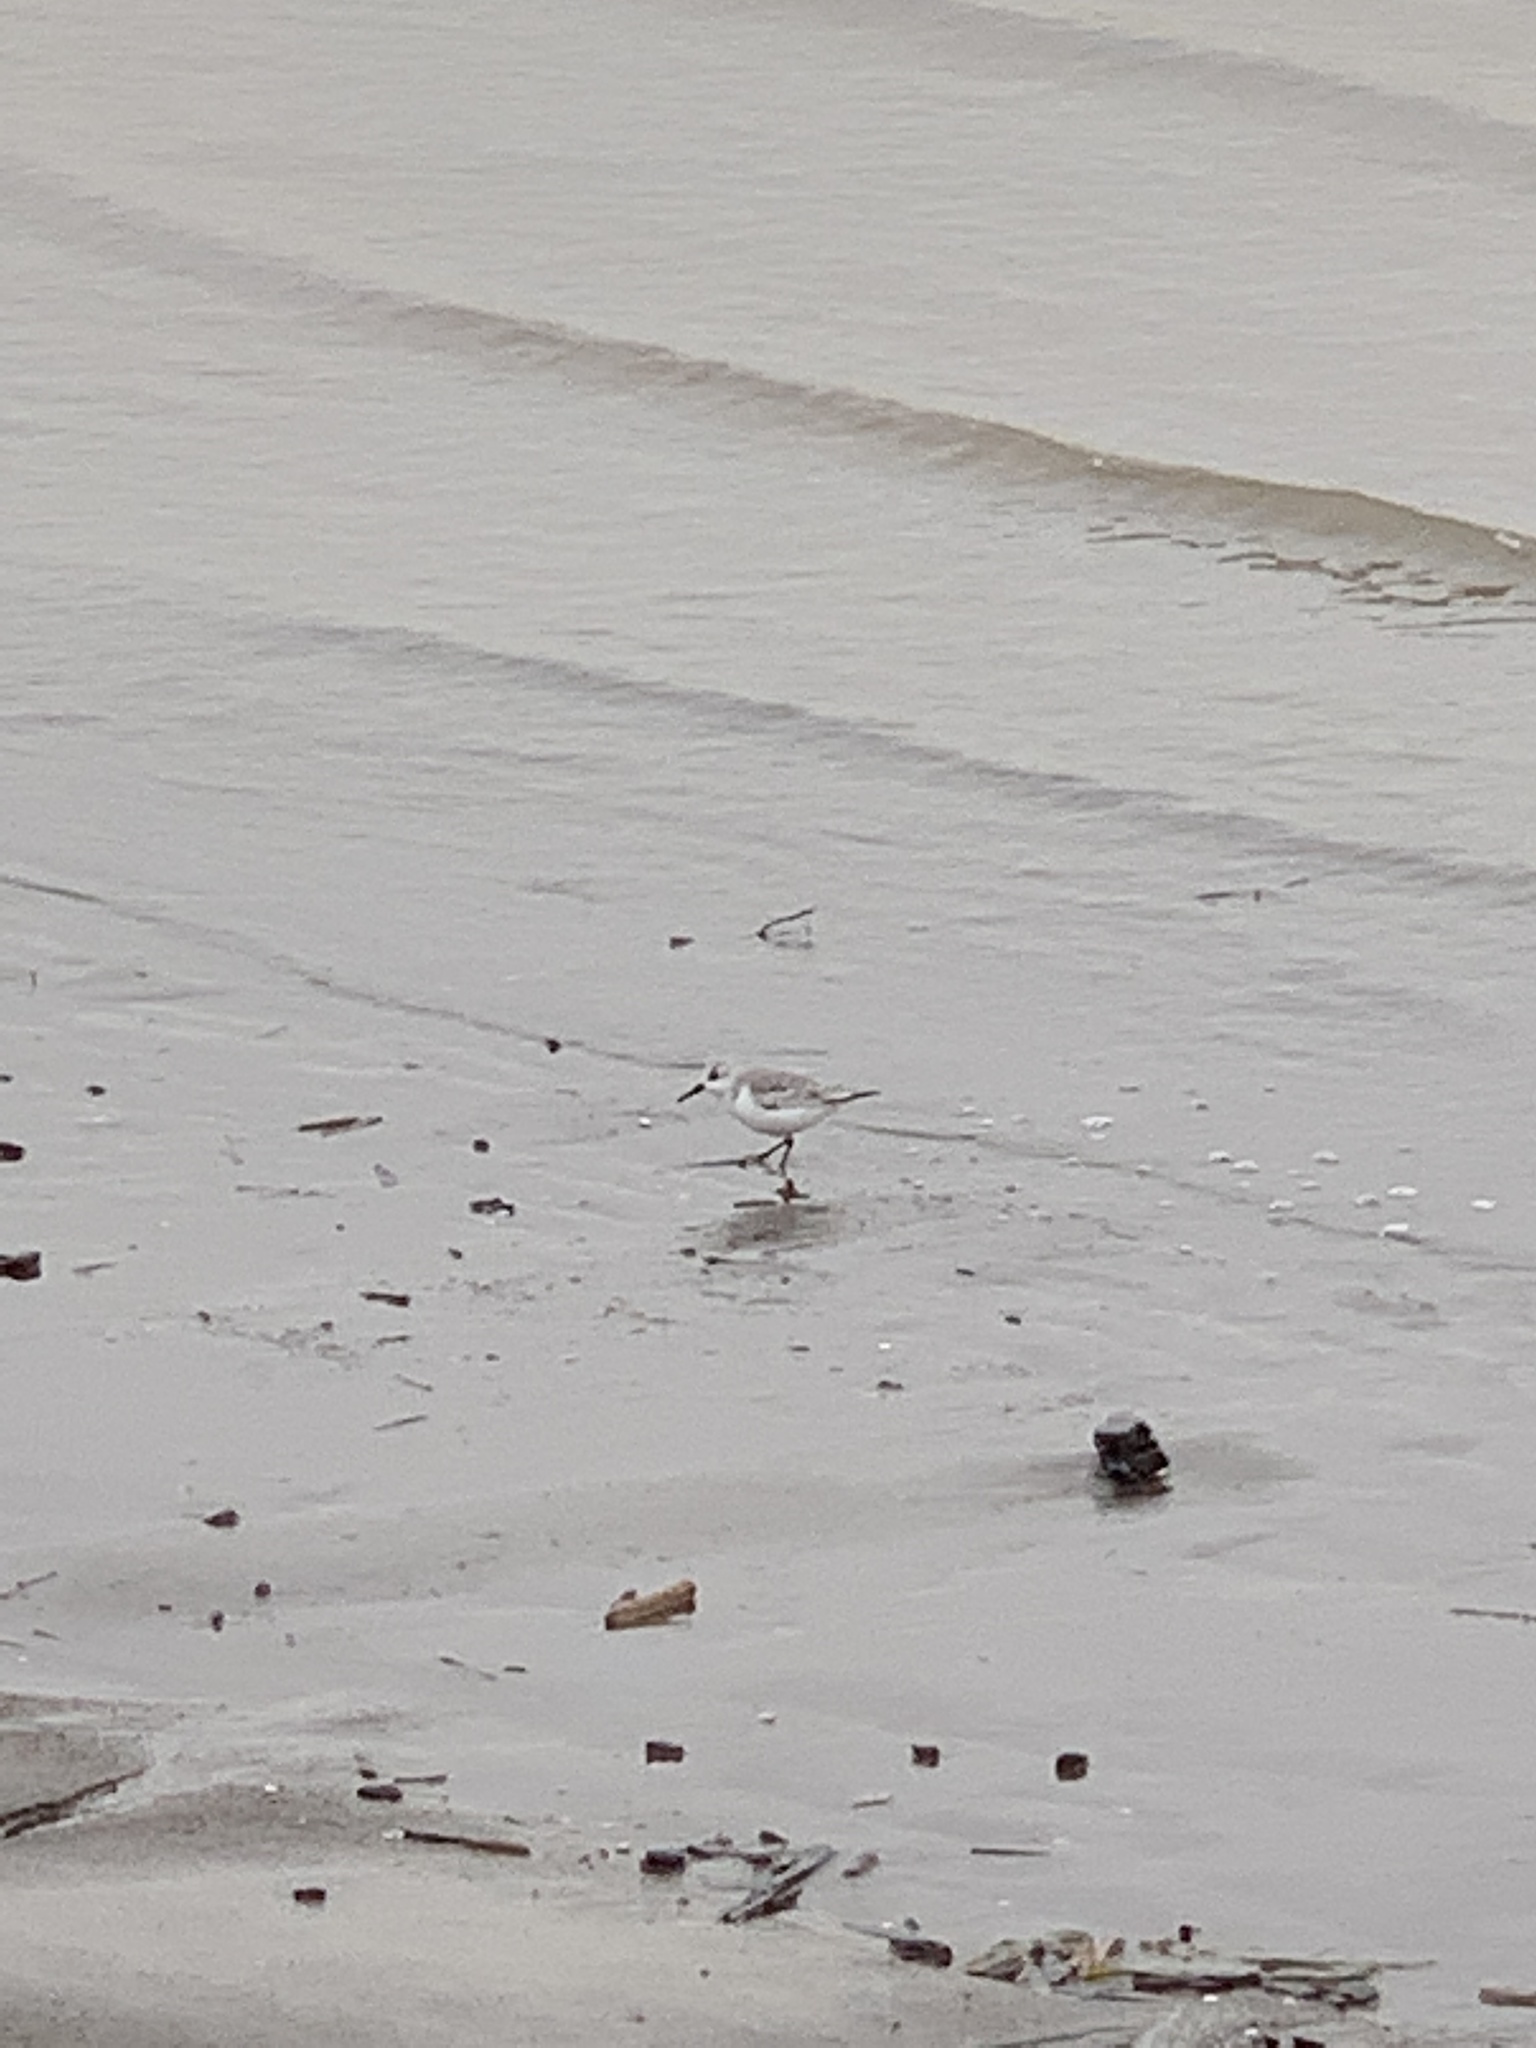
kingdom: Animalia
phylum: Chordata
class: Aves
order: Charadriiformes
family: Scolopacidae
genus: Calidris
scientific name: Calidris alba
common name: Sanderling
